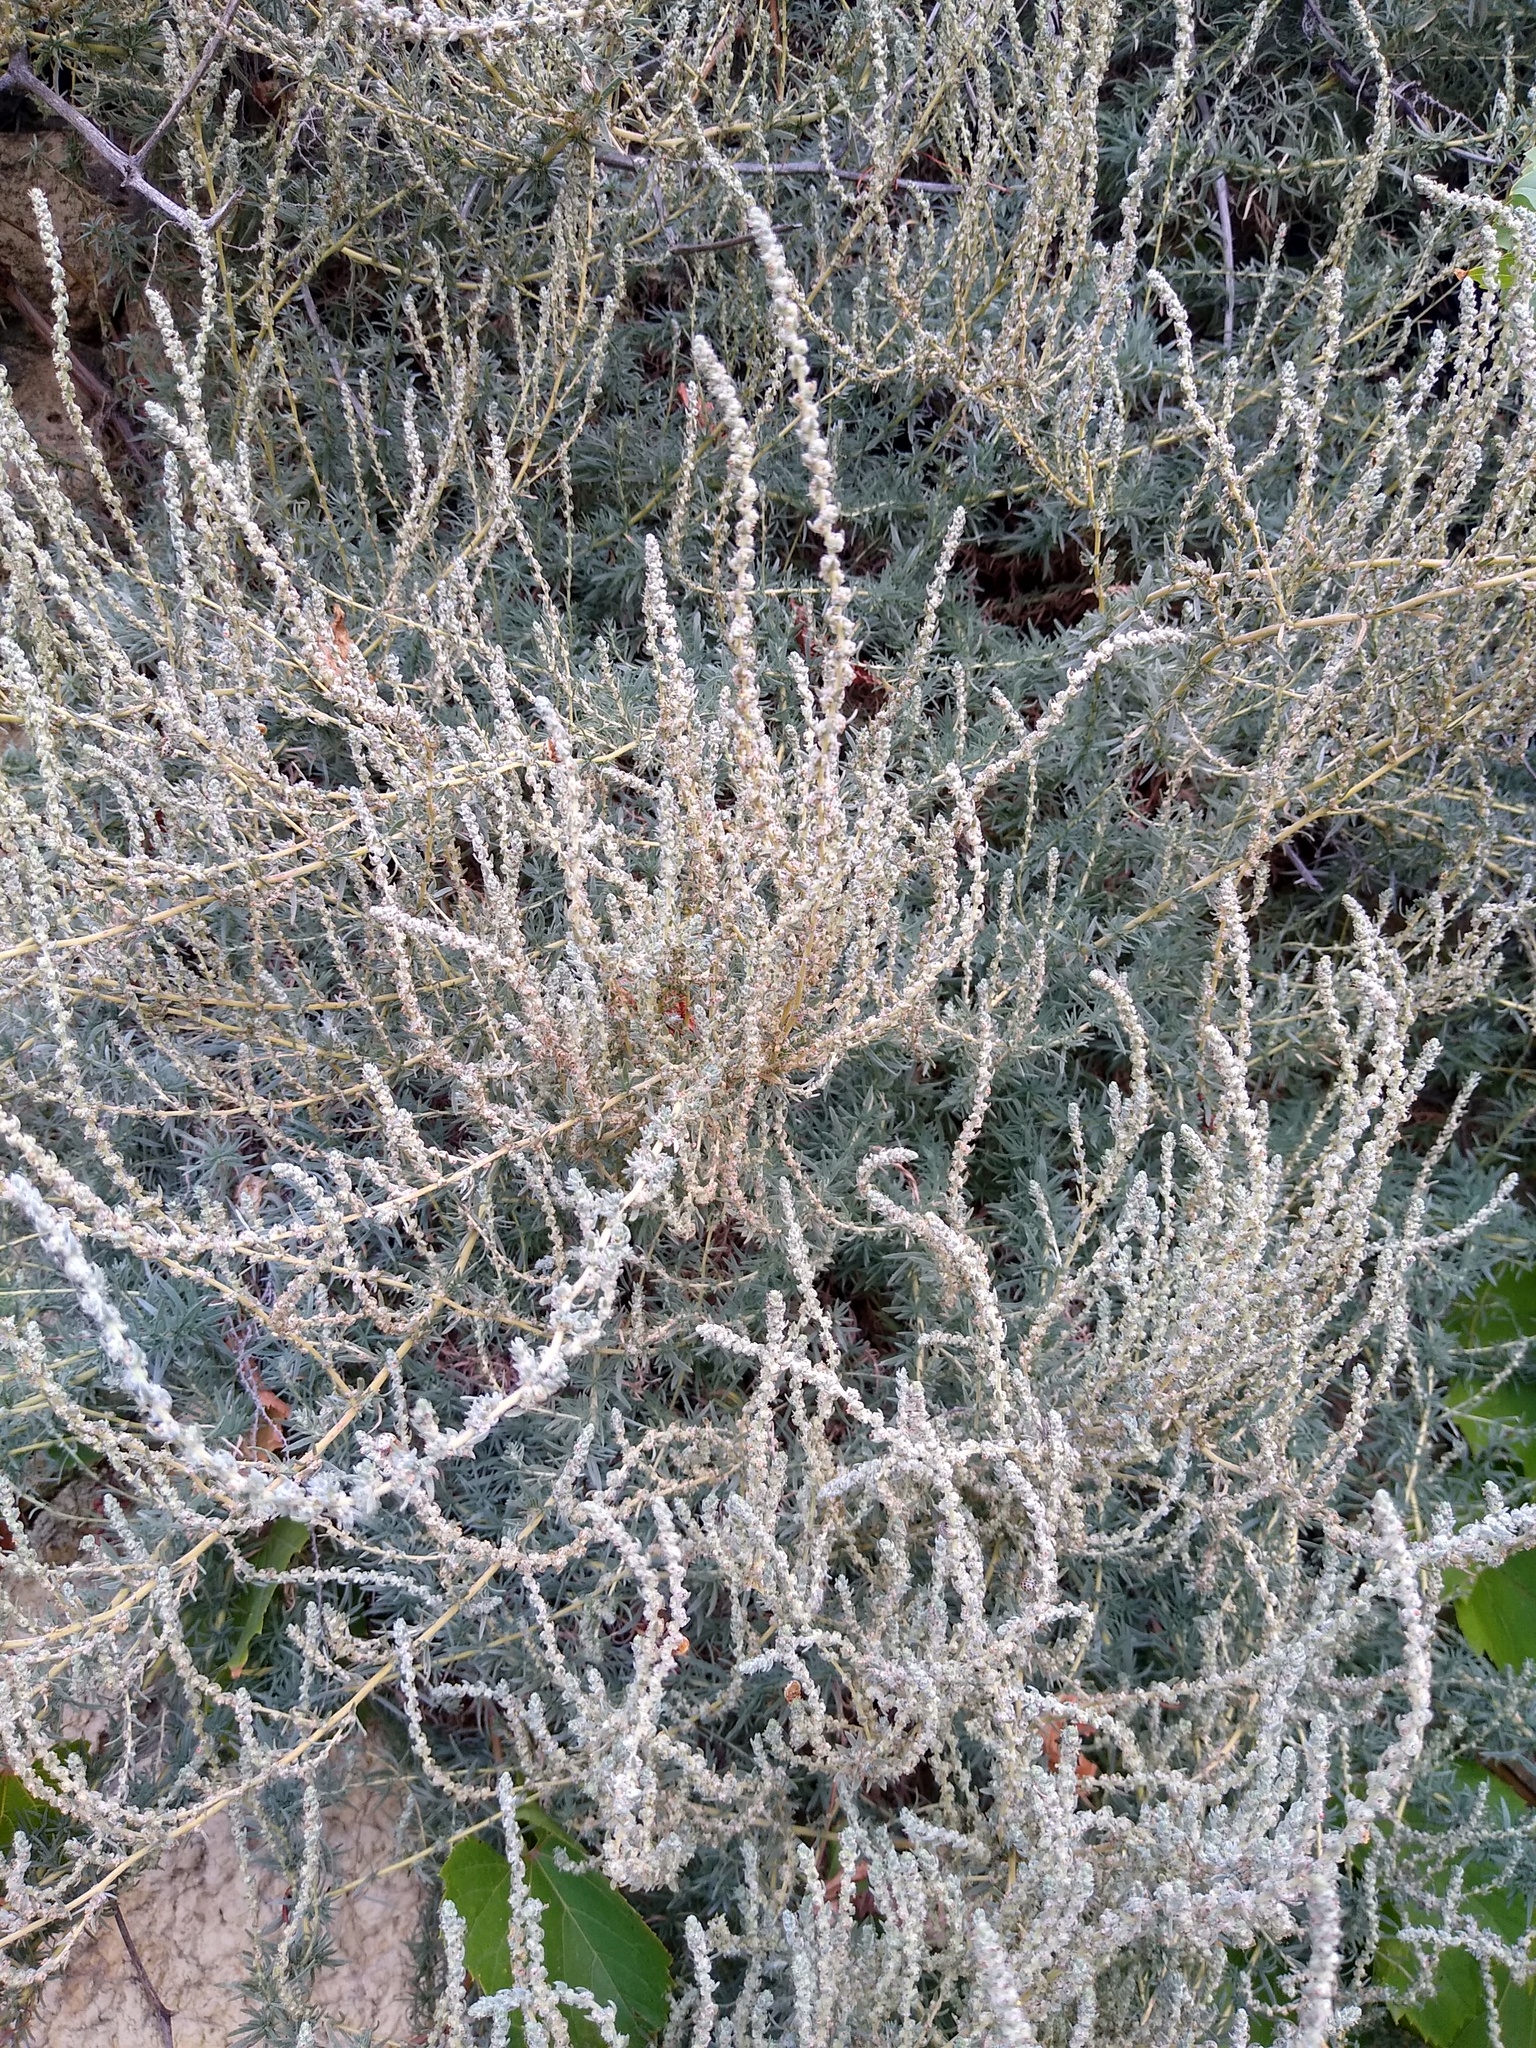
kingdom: Plantae
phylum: Tracheophyta
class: Magnoliopsida
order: Caryophyllales
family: Amaranthaceae
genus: Bassia
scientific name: Bassia prostrata
